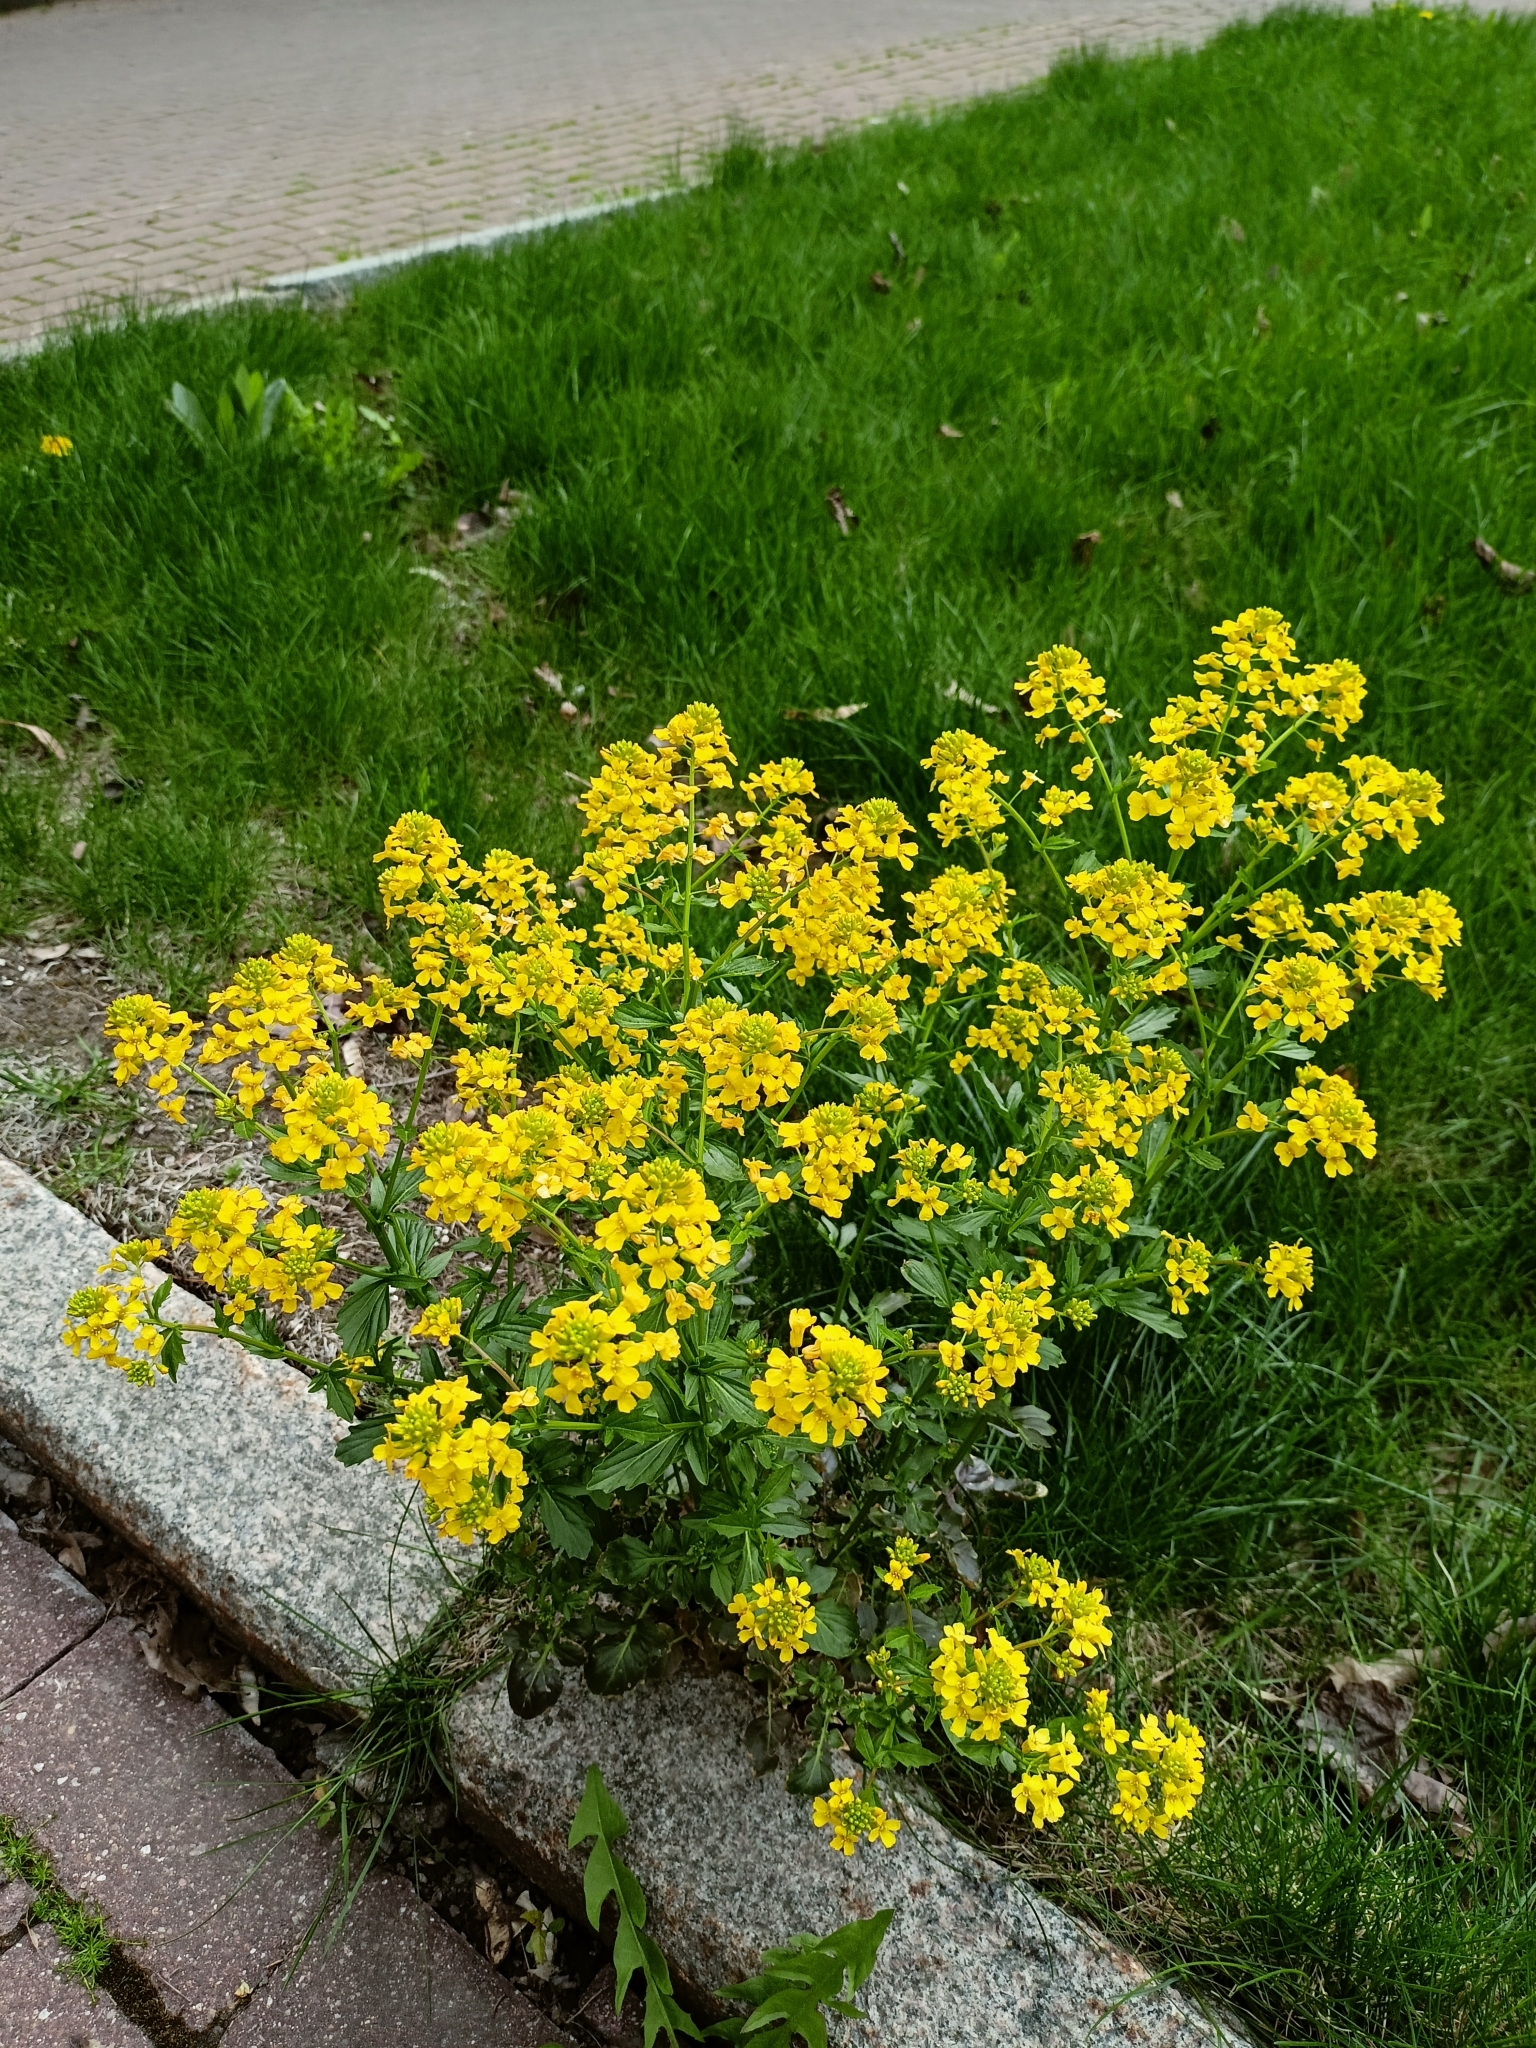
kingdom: Plantae
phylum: Tracheophyta
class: Magnoliopsida
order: Brassicales
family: Brassicaceae
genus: Barbarea
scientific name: Barbarea vulgaris
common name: Cressy-greens
